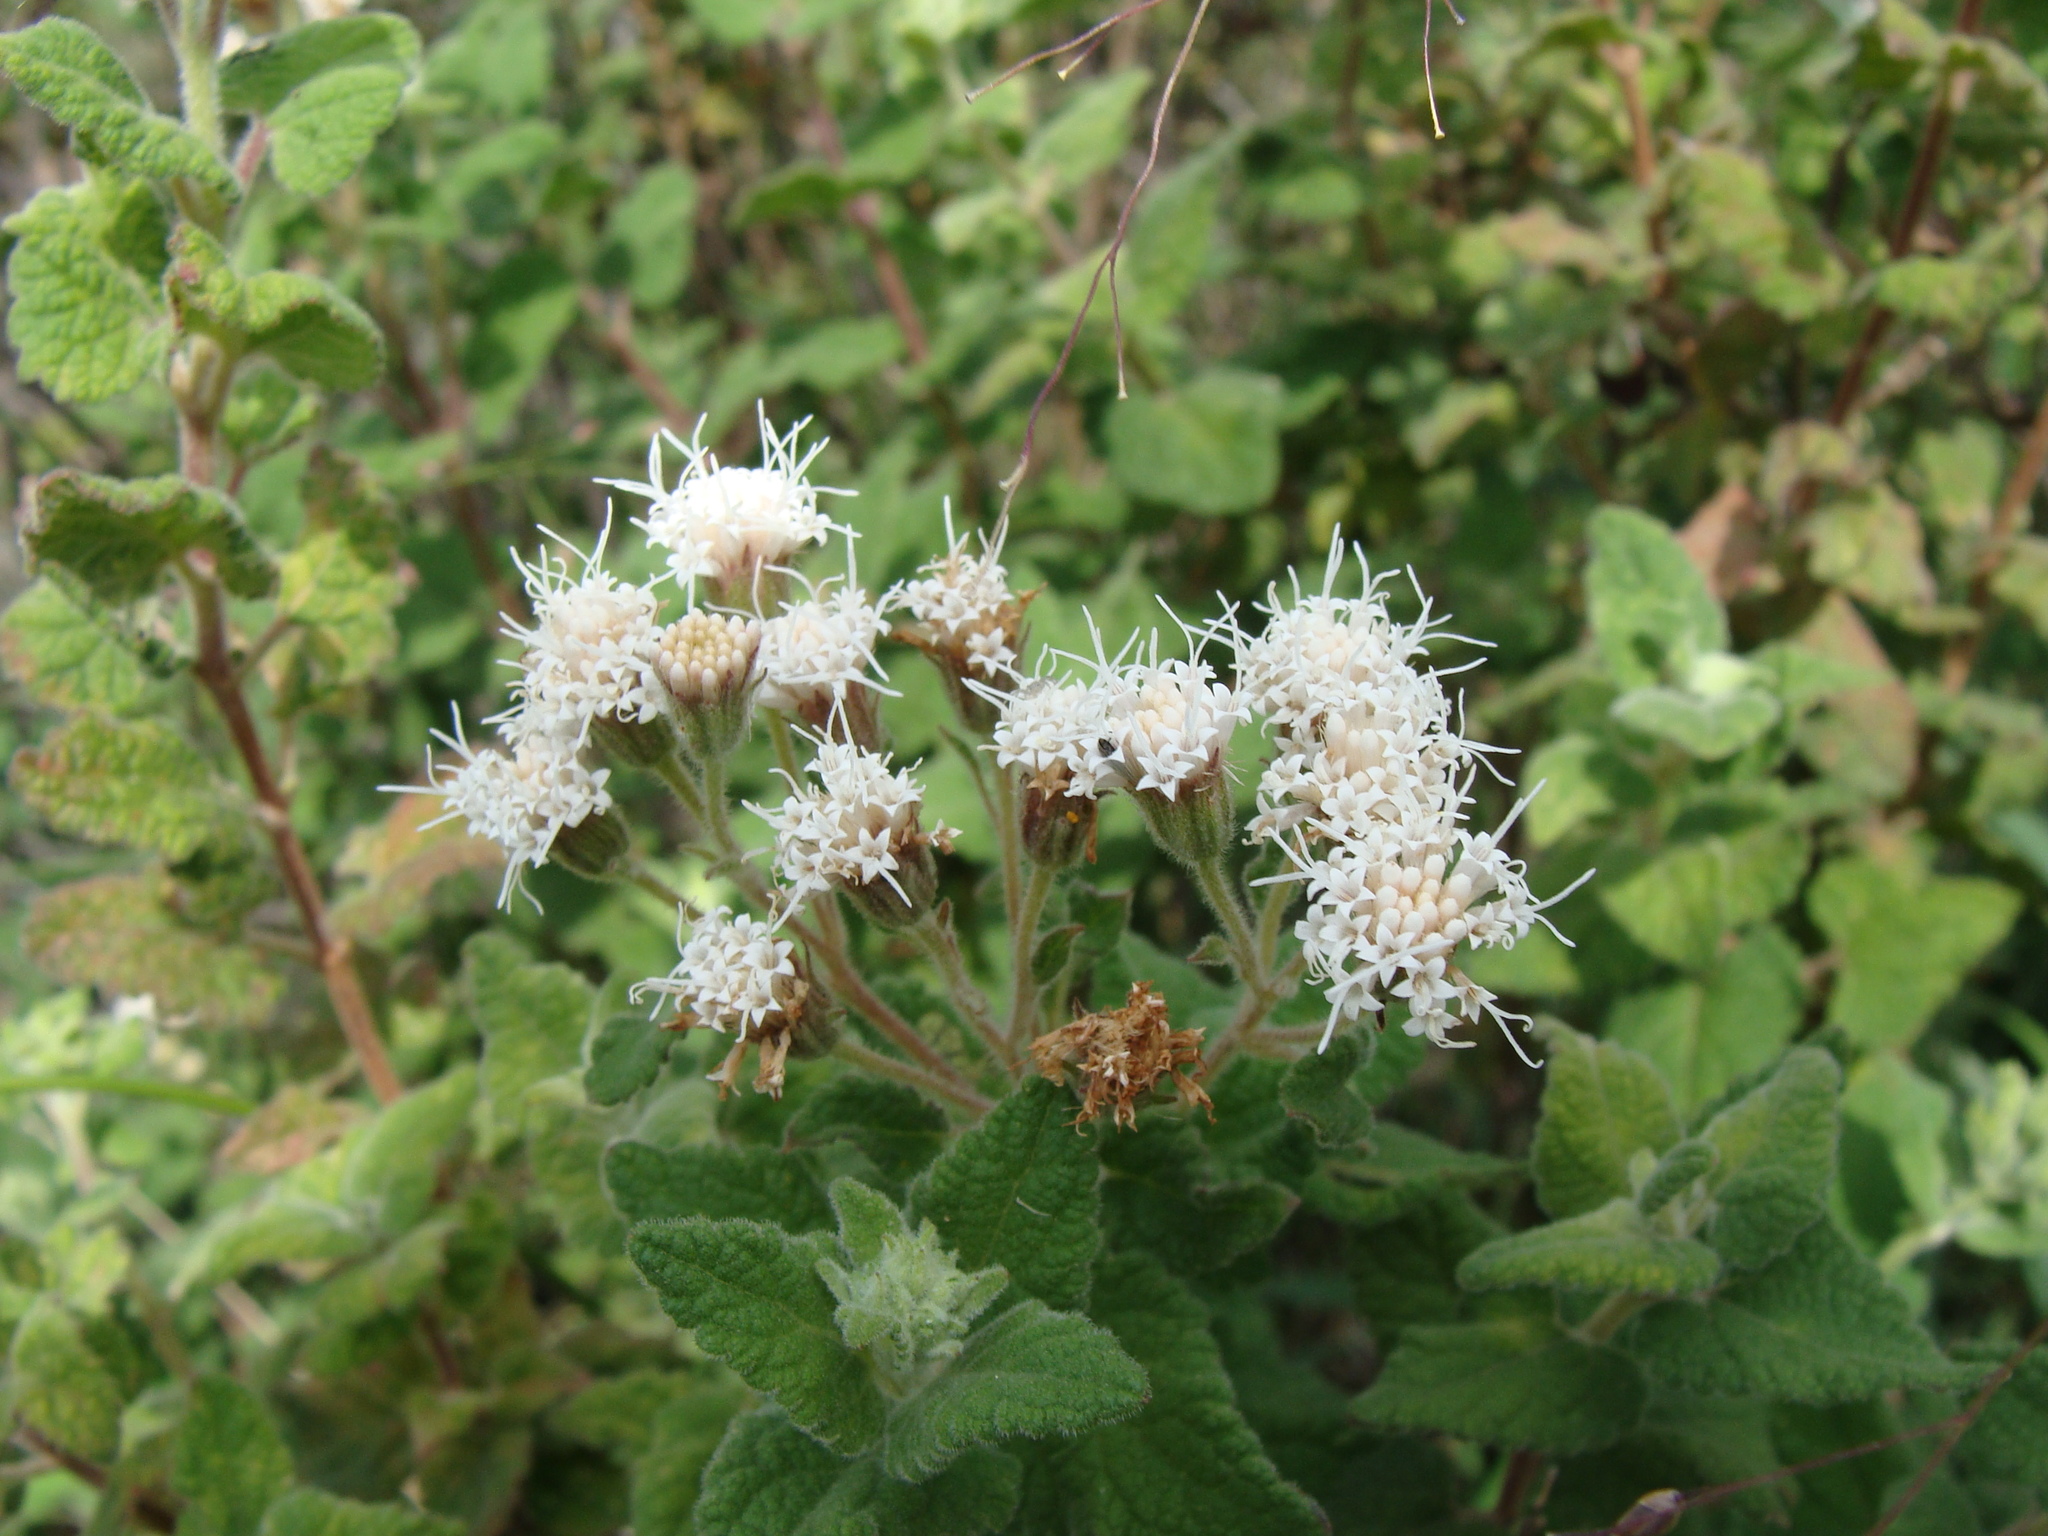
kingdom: Plantae
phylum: Tracheophyta
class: Magnoliopsida
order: Asterales
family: Asteraceae
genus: Ageratina
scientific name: Ageratina scorodonioides
